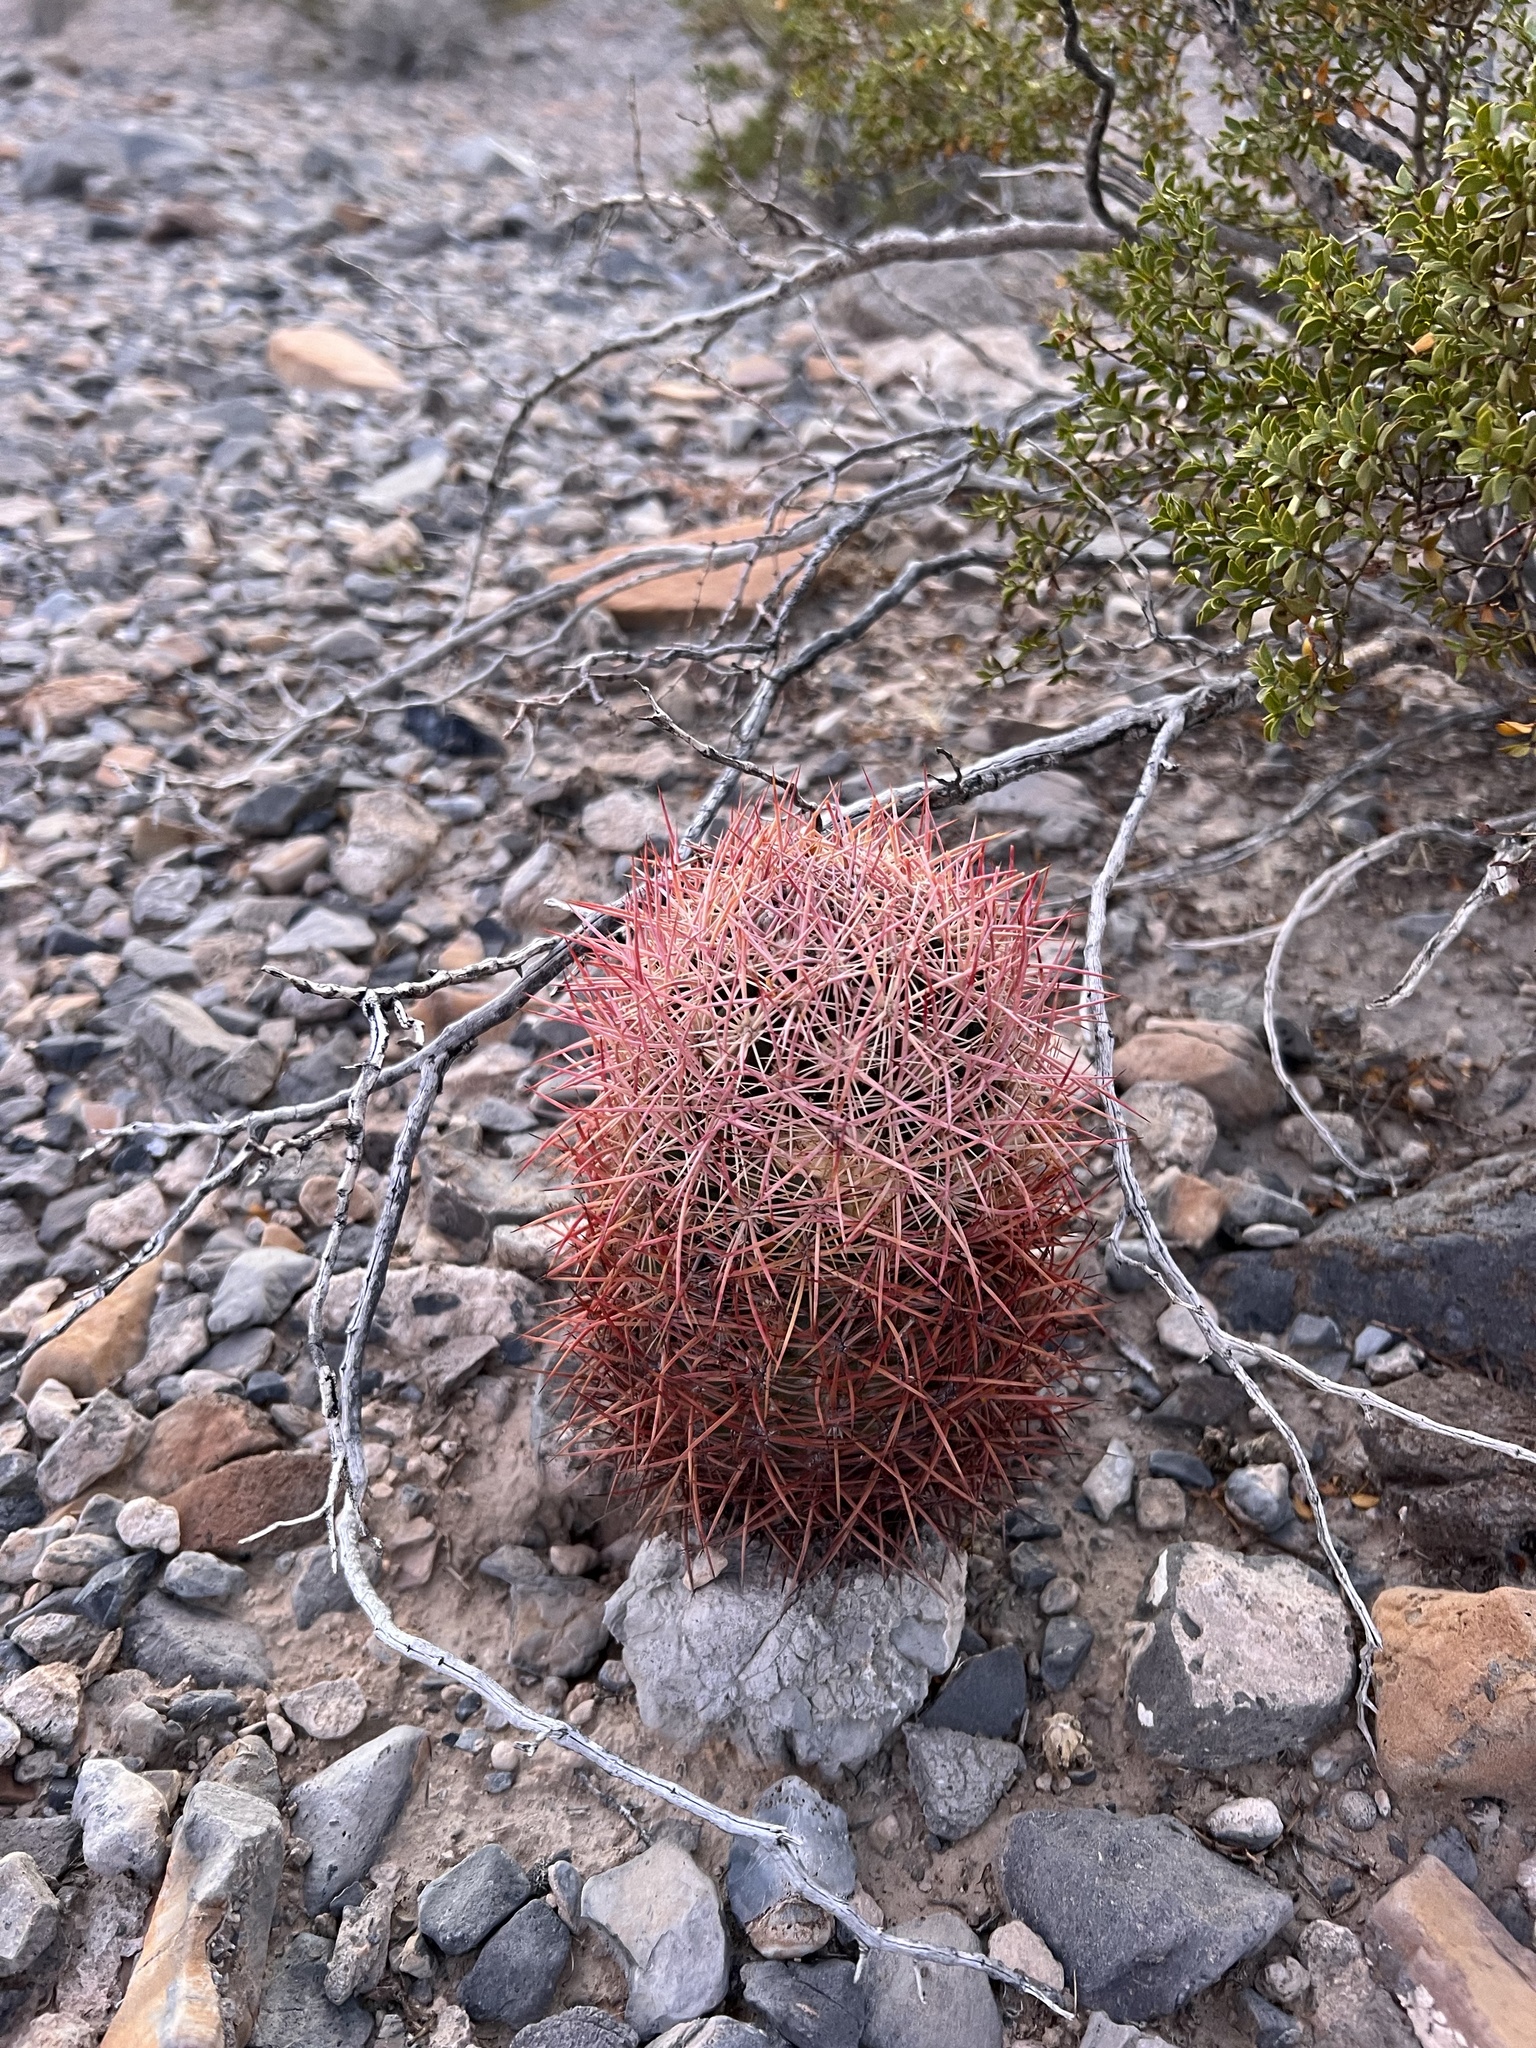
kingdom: Plantae
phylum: Tracheophyta
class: Magnoliopsida
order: Caryophyllales
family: Cactaceae
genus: Sclerocactus
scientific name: Sclerocactus johnsonii
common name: Eight-spine fishhook cactus
